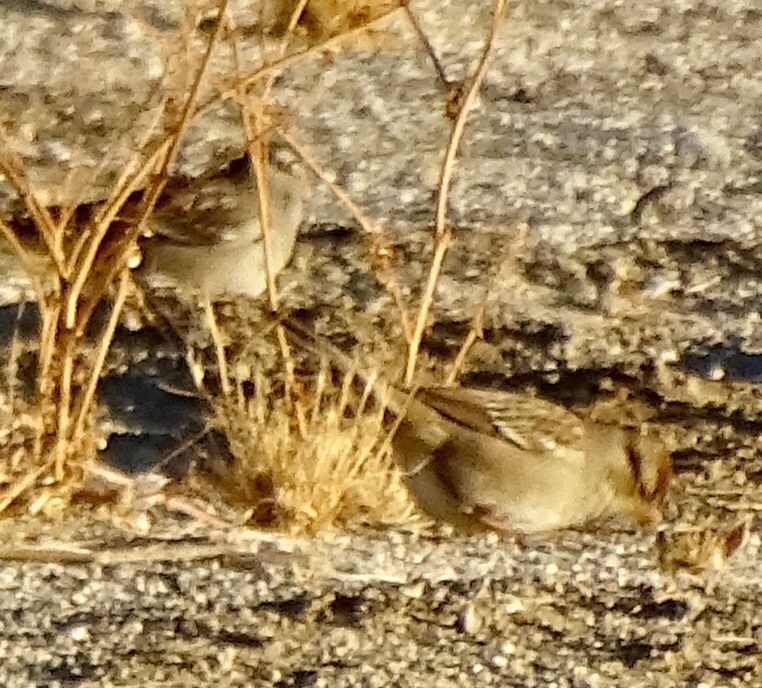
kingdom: Animalia
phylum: Chordata
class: Aves
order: Passeriformes
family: Passerellidae
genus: Zonotrichia
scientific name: Zonotrichia leucophrys
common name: White-crowned sparrow
